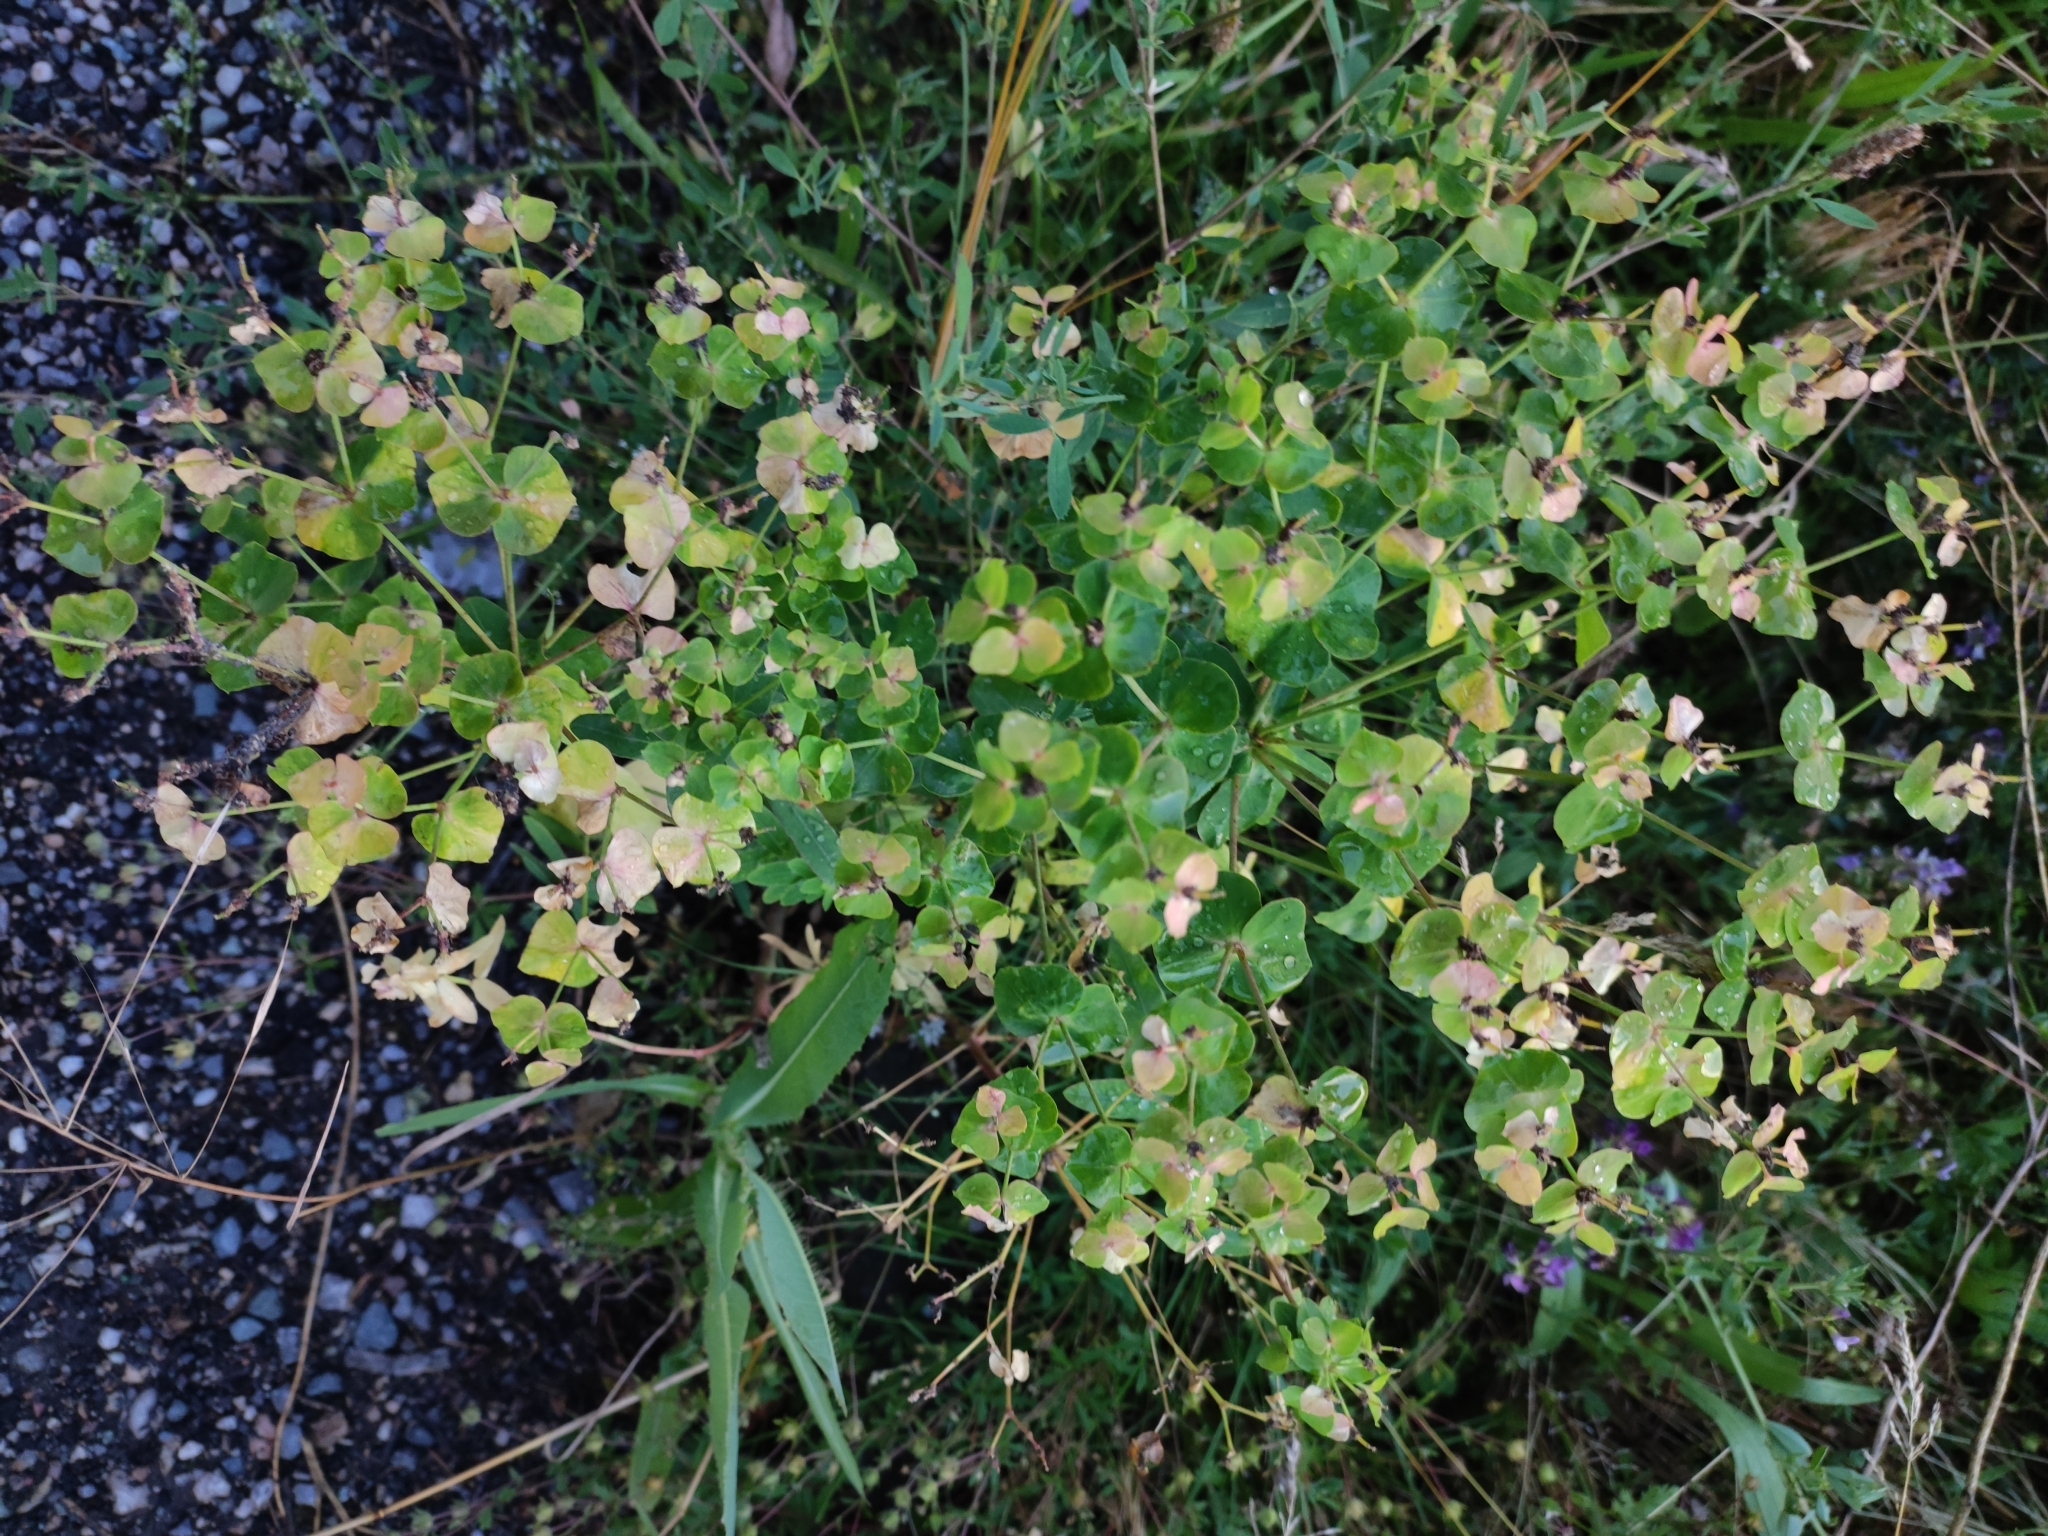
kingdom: Plantae
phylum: Tracheophyta
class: Magnoliopsida
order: Malpighiales
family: Euphorbiaceae
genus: Euphorbia
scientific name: Euphorbia iberica
